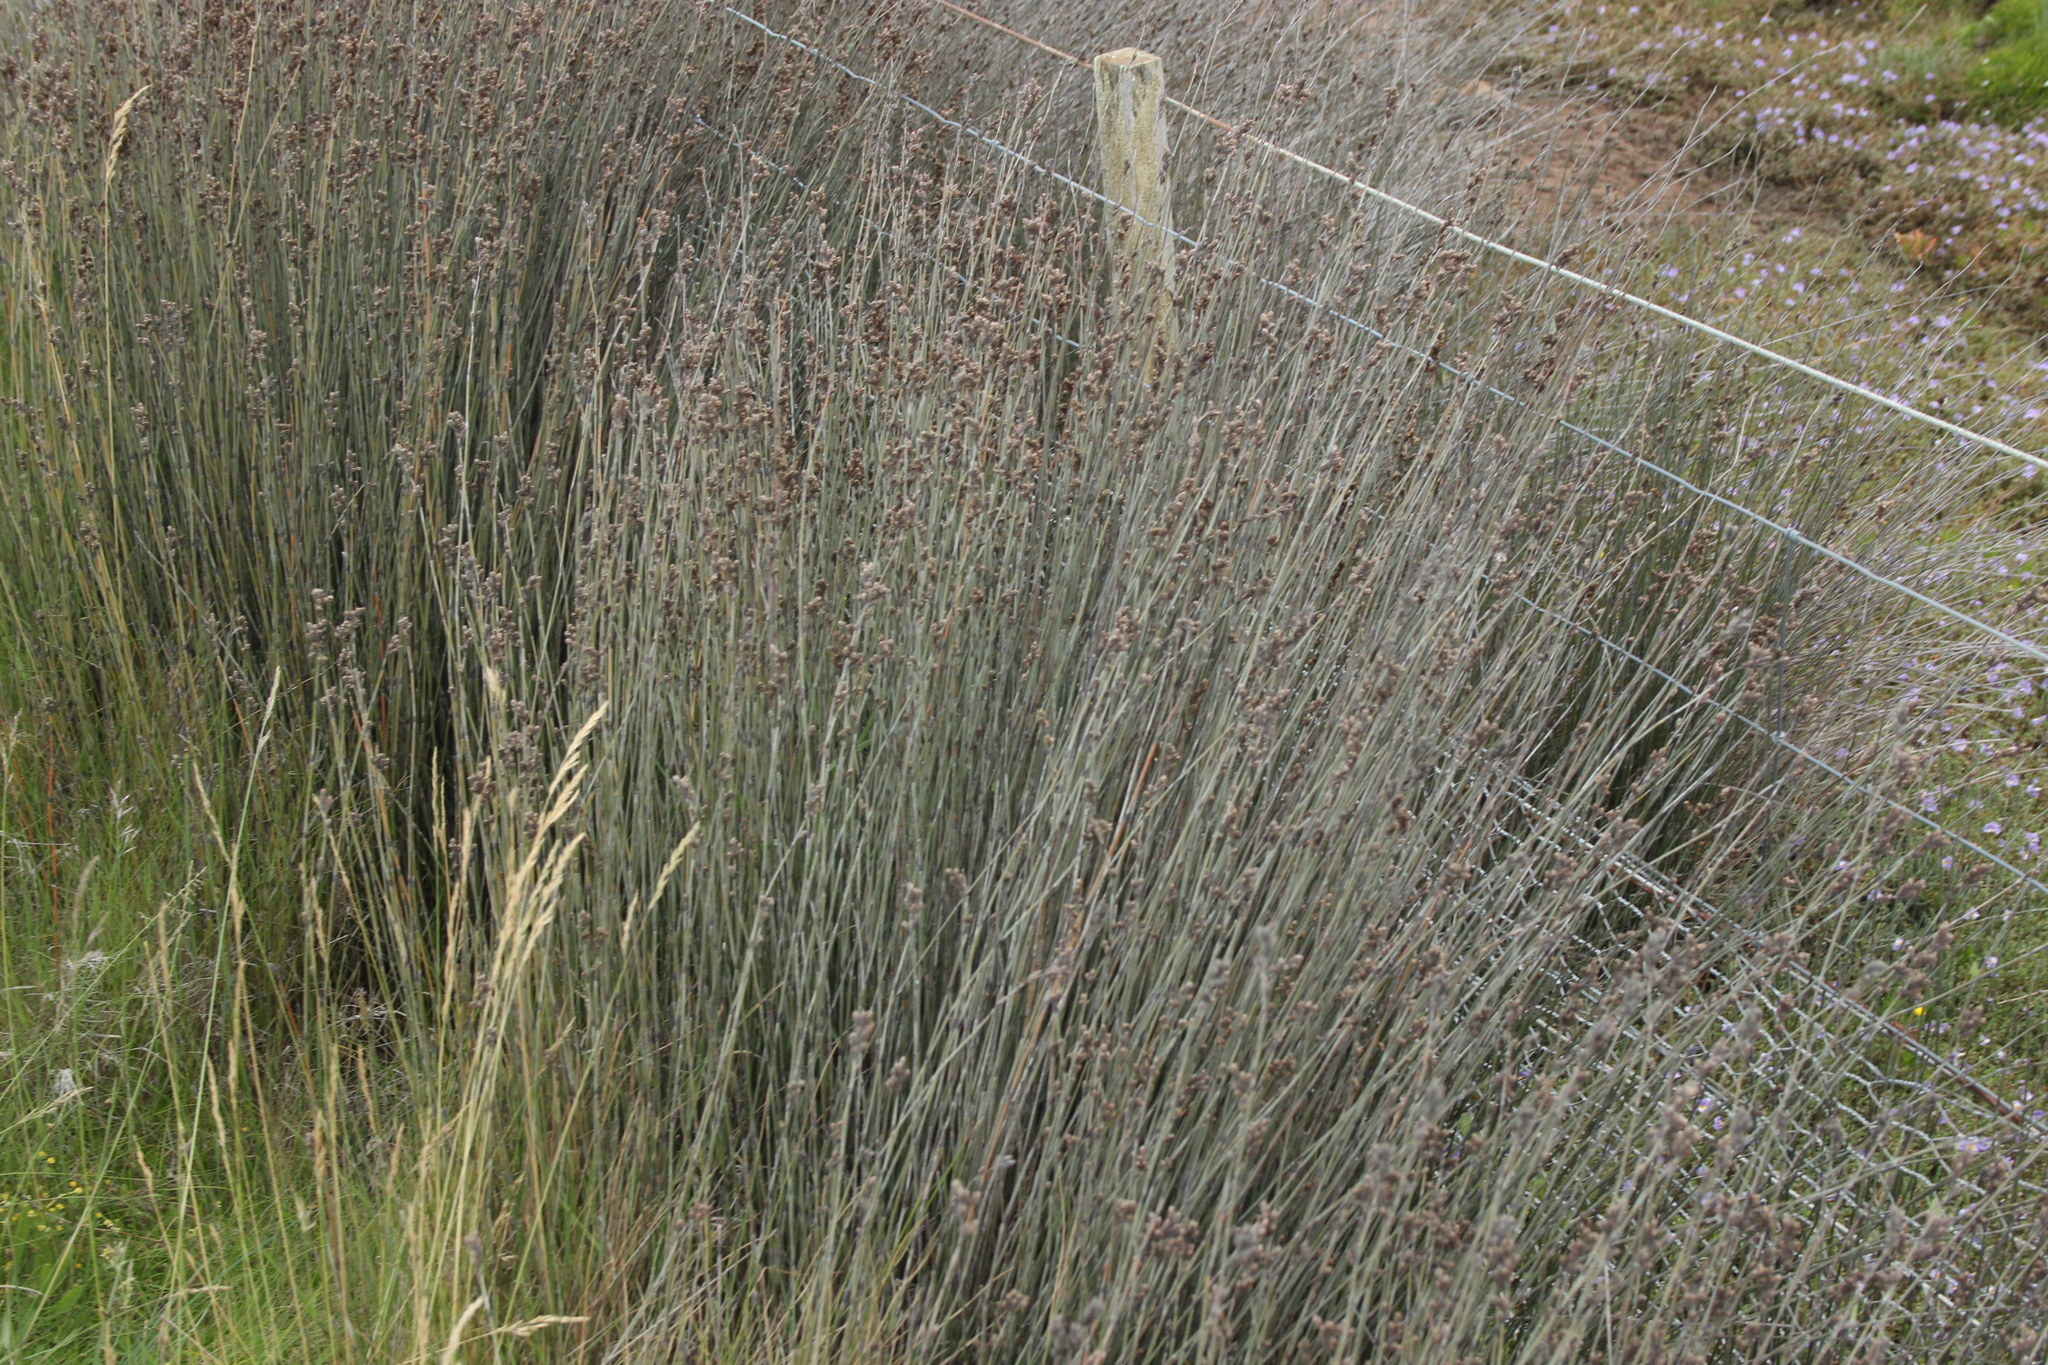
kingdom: Plantae
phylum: Tracheophyta
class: Liliopsida
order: Poales
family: Restionaceae
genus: Apodasmia
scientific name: Apodasmia similis
